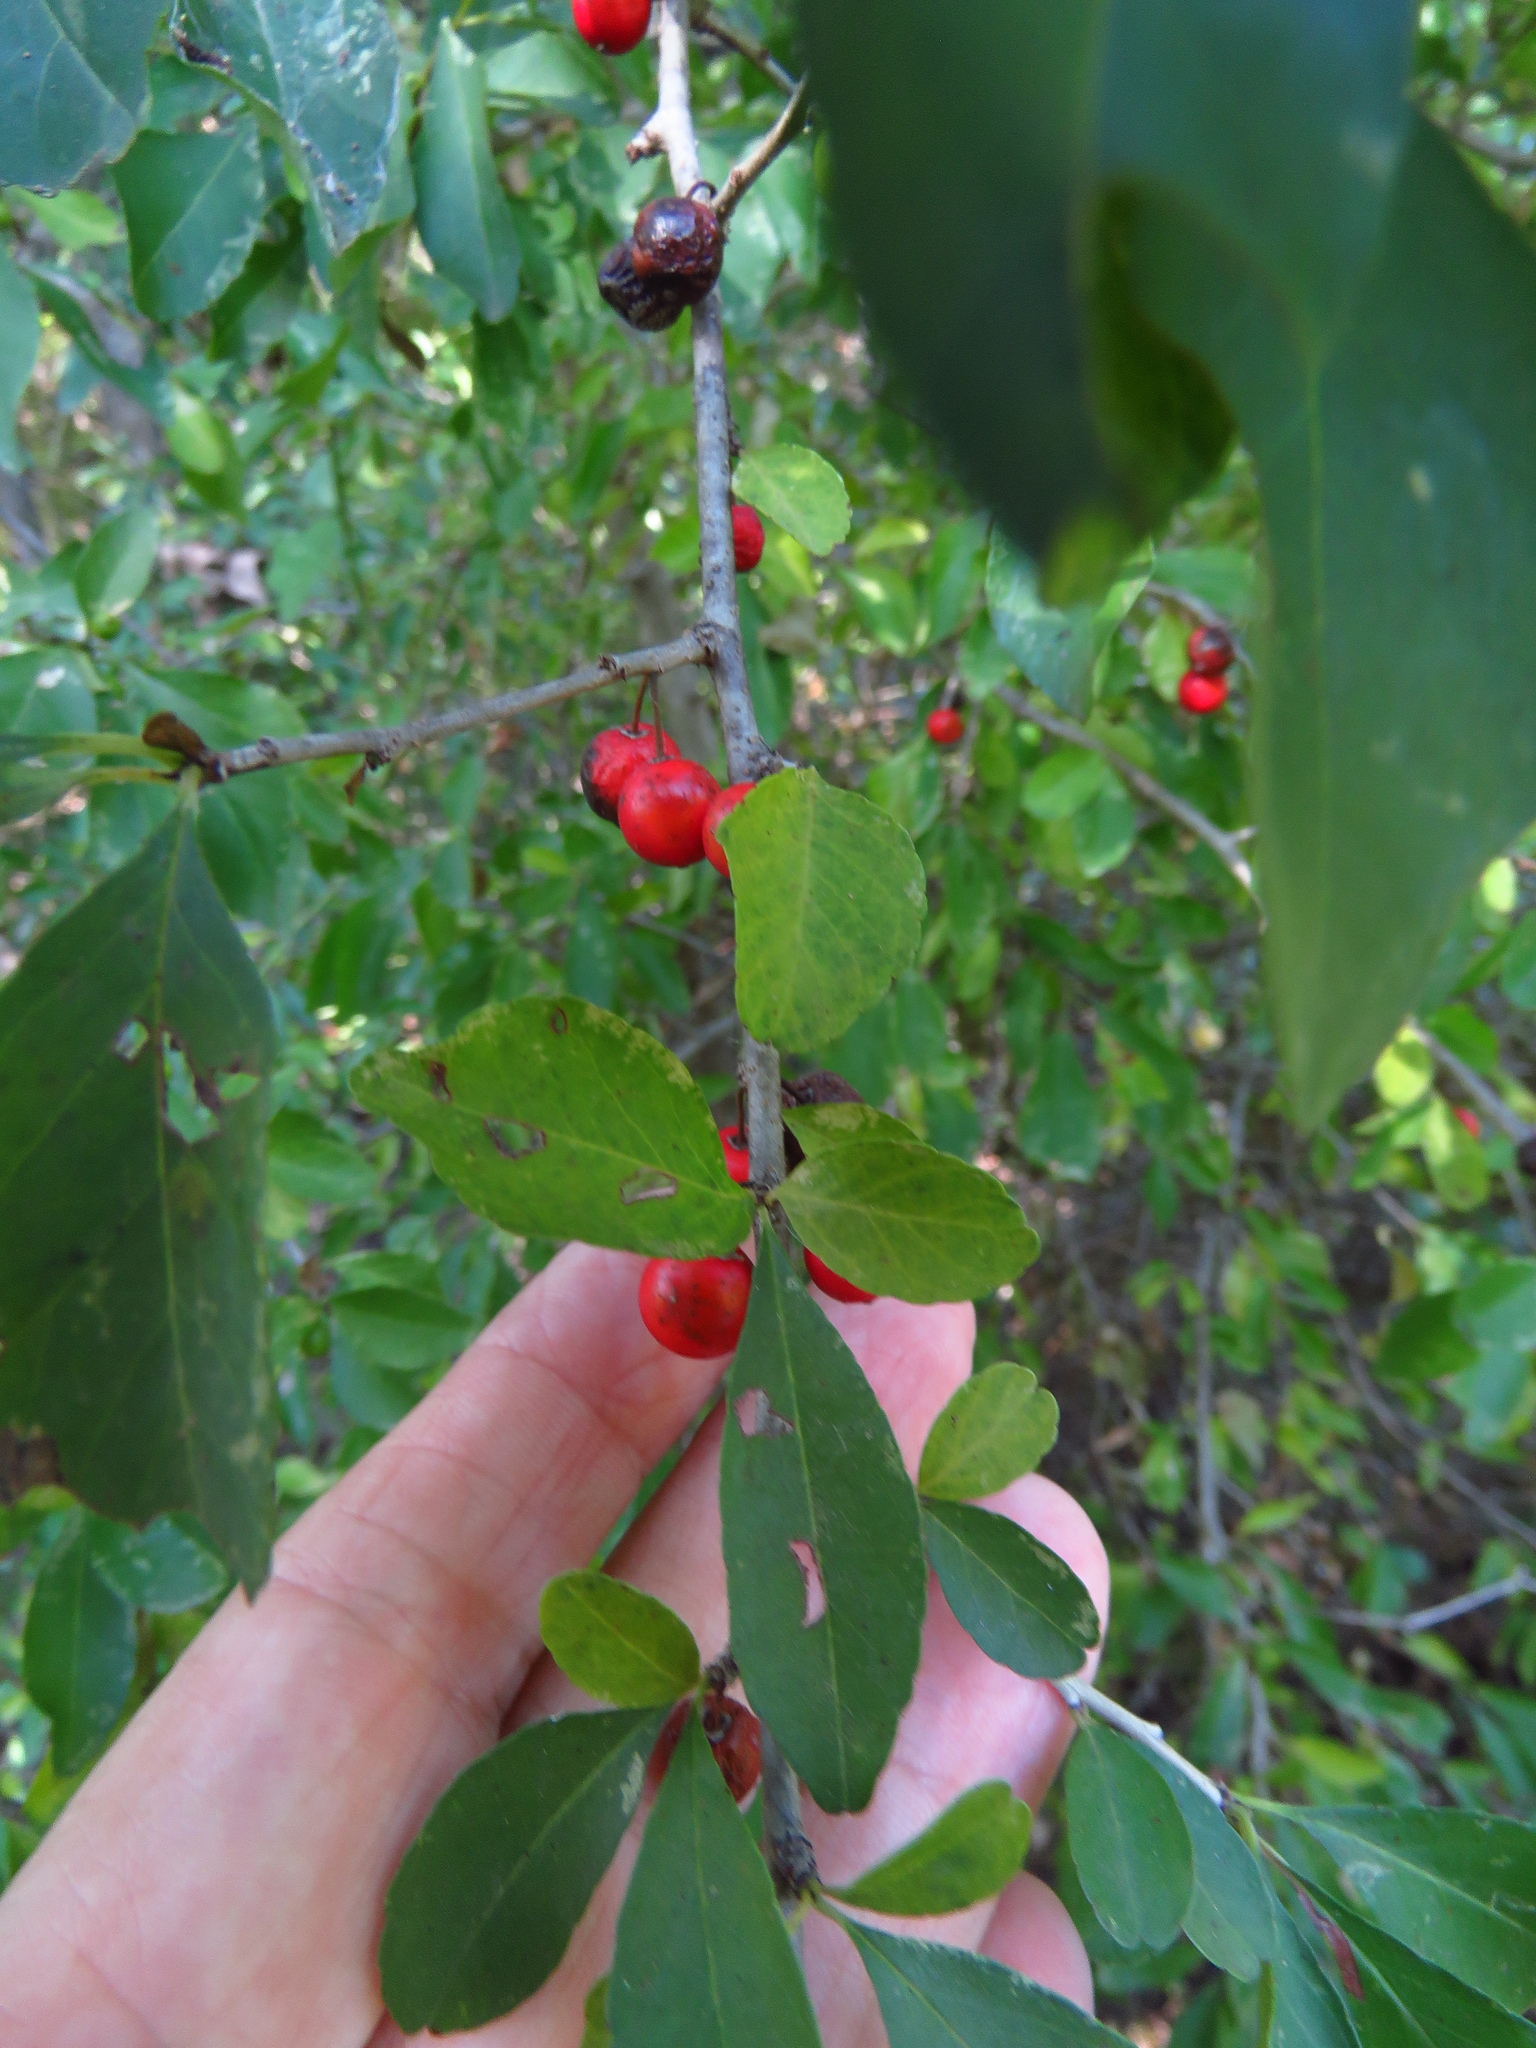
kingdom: Plantae
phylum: Tracheophyta
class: Magnoliopsida
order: Aquifoliales
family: Aquifoliaceae
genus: Ilex
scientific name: Ilex decidua
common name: Possum-haw
